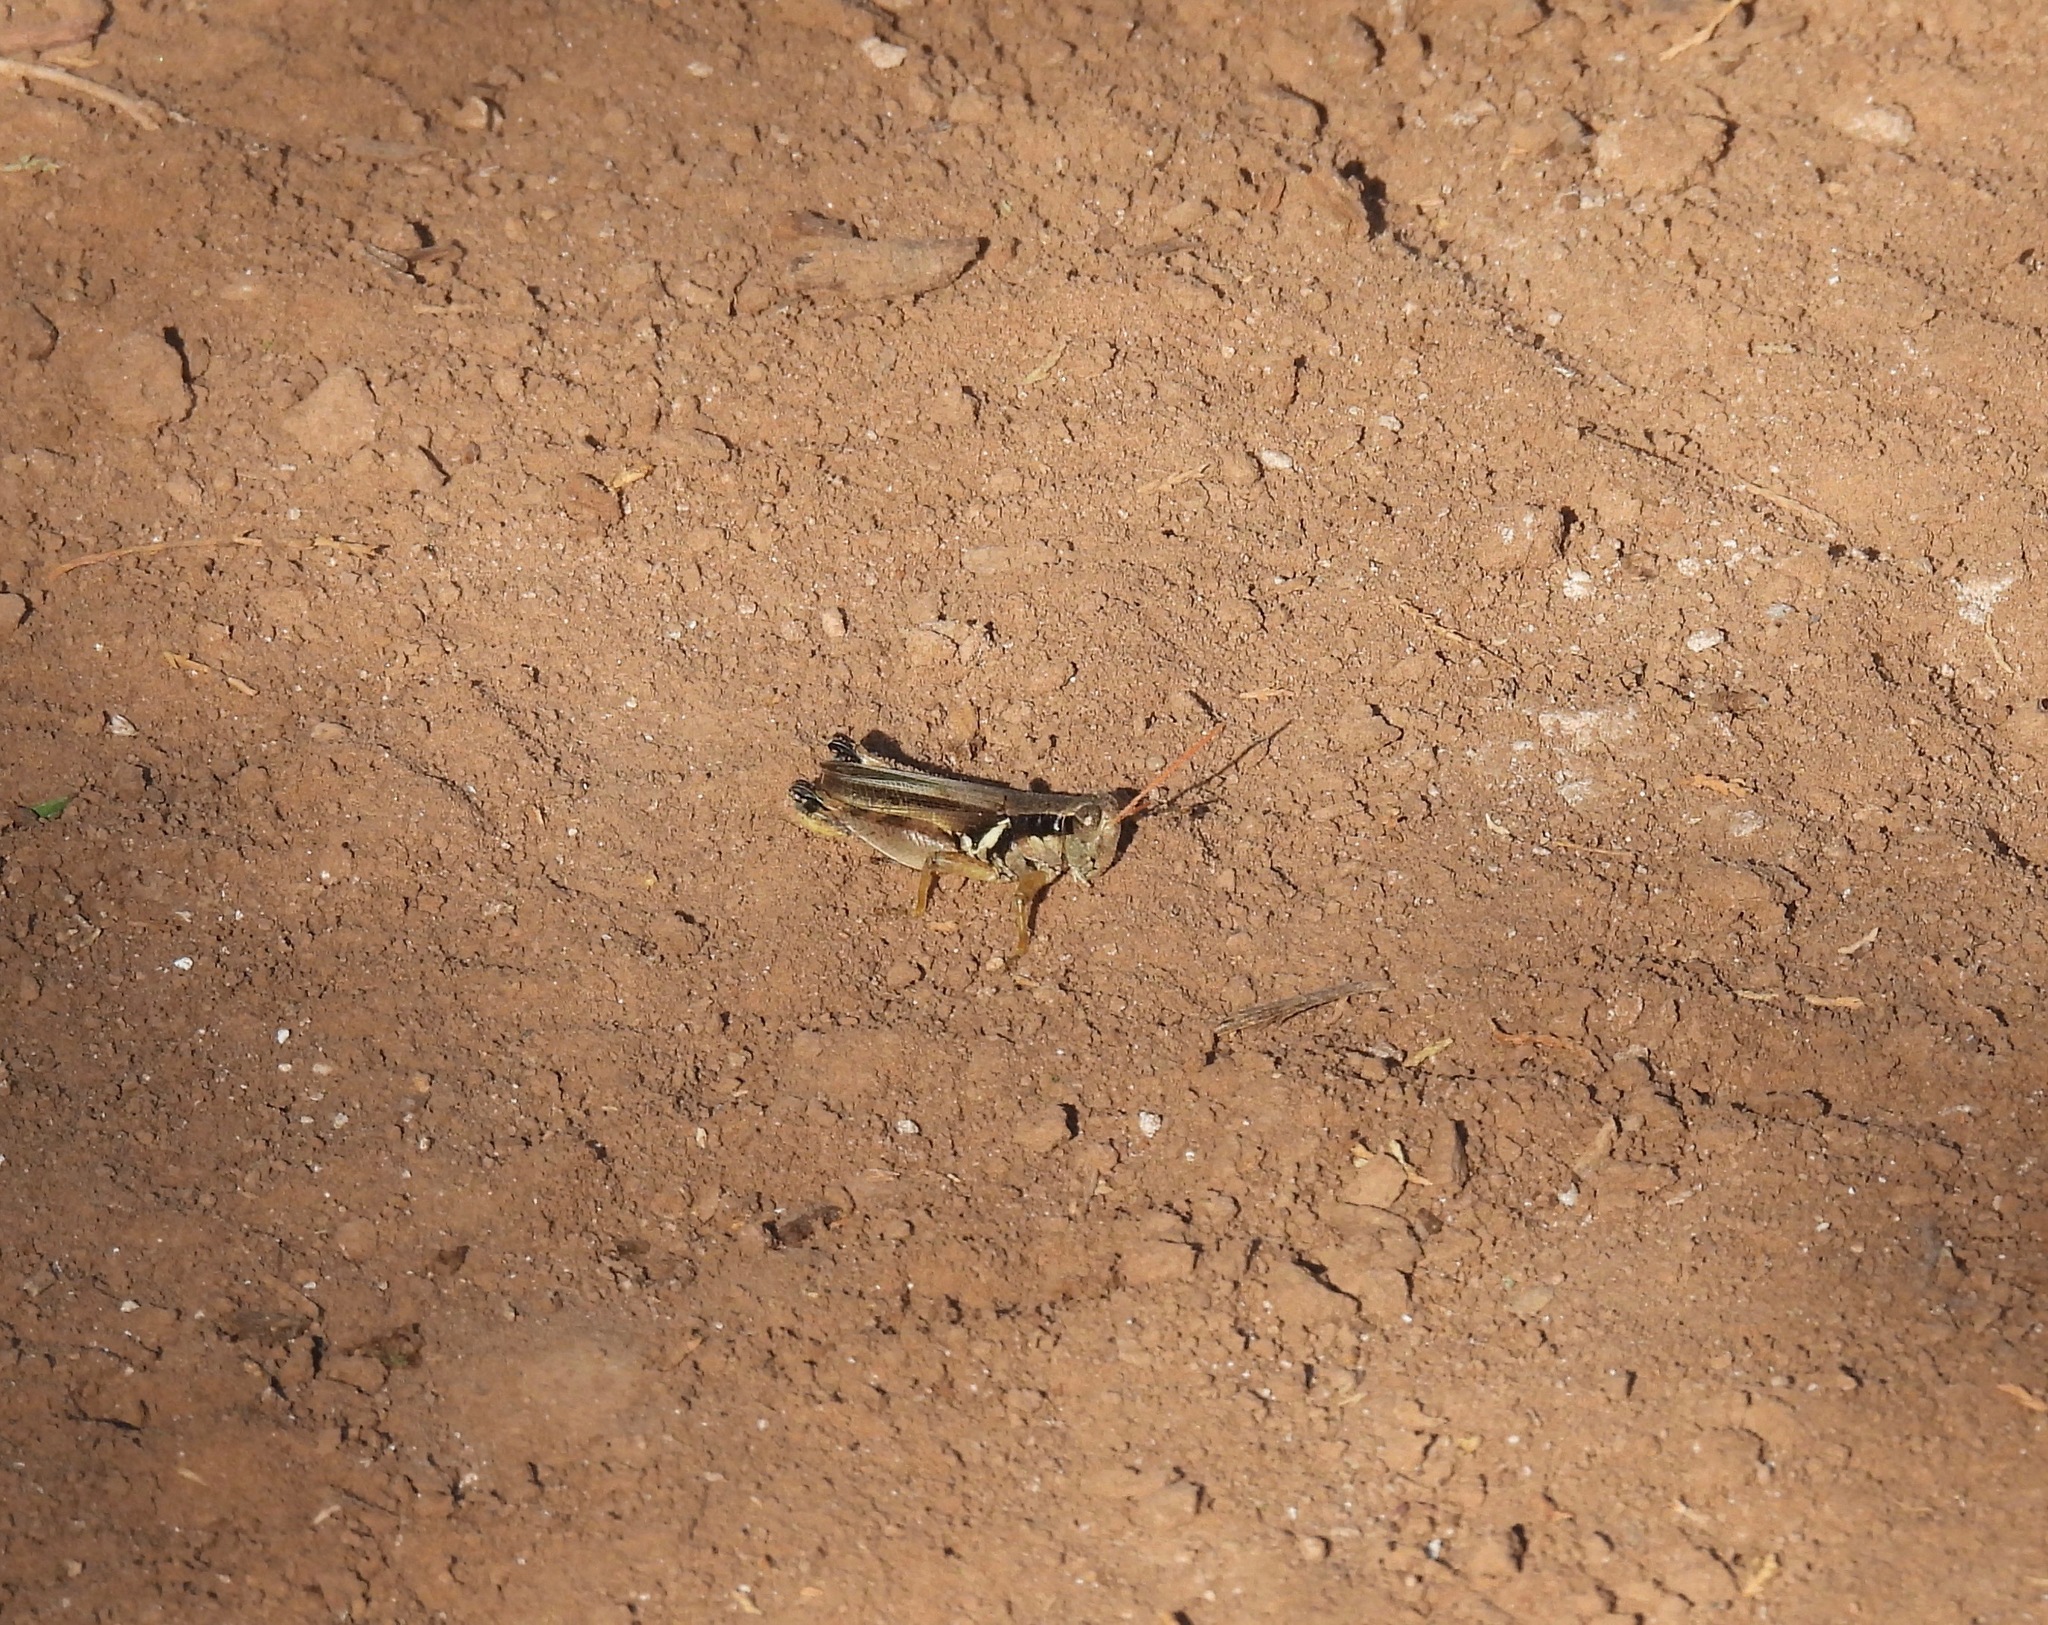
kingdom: Animalia
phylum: Arthropoda
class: Insecta
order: Orthoptera
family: Acrididae
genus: Melanoplus
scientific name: Melanoplus glaucipes
